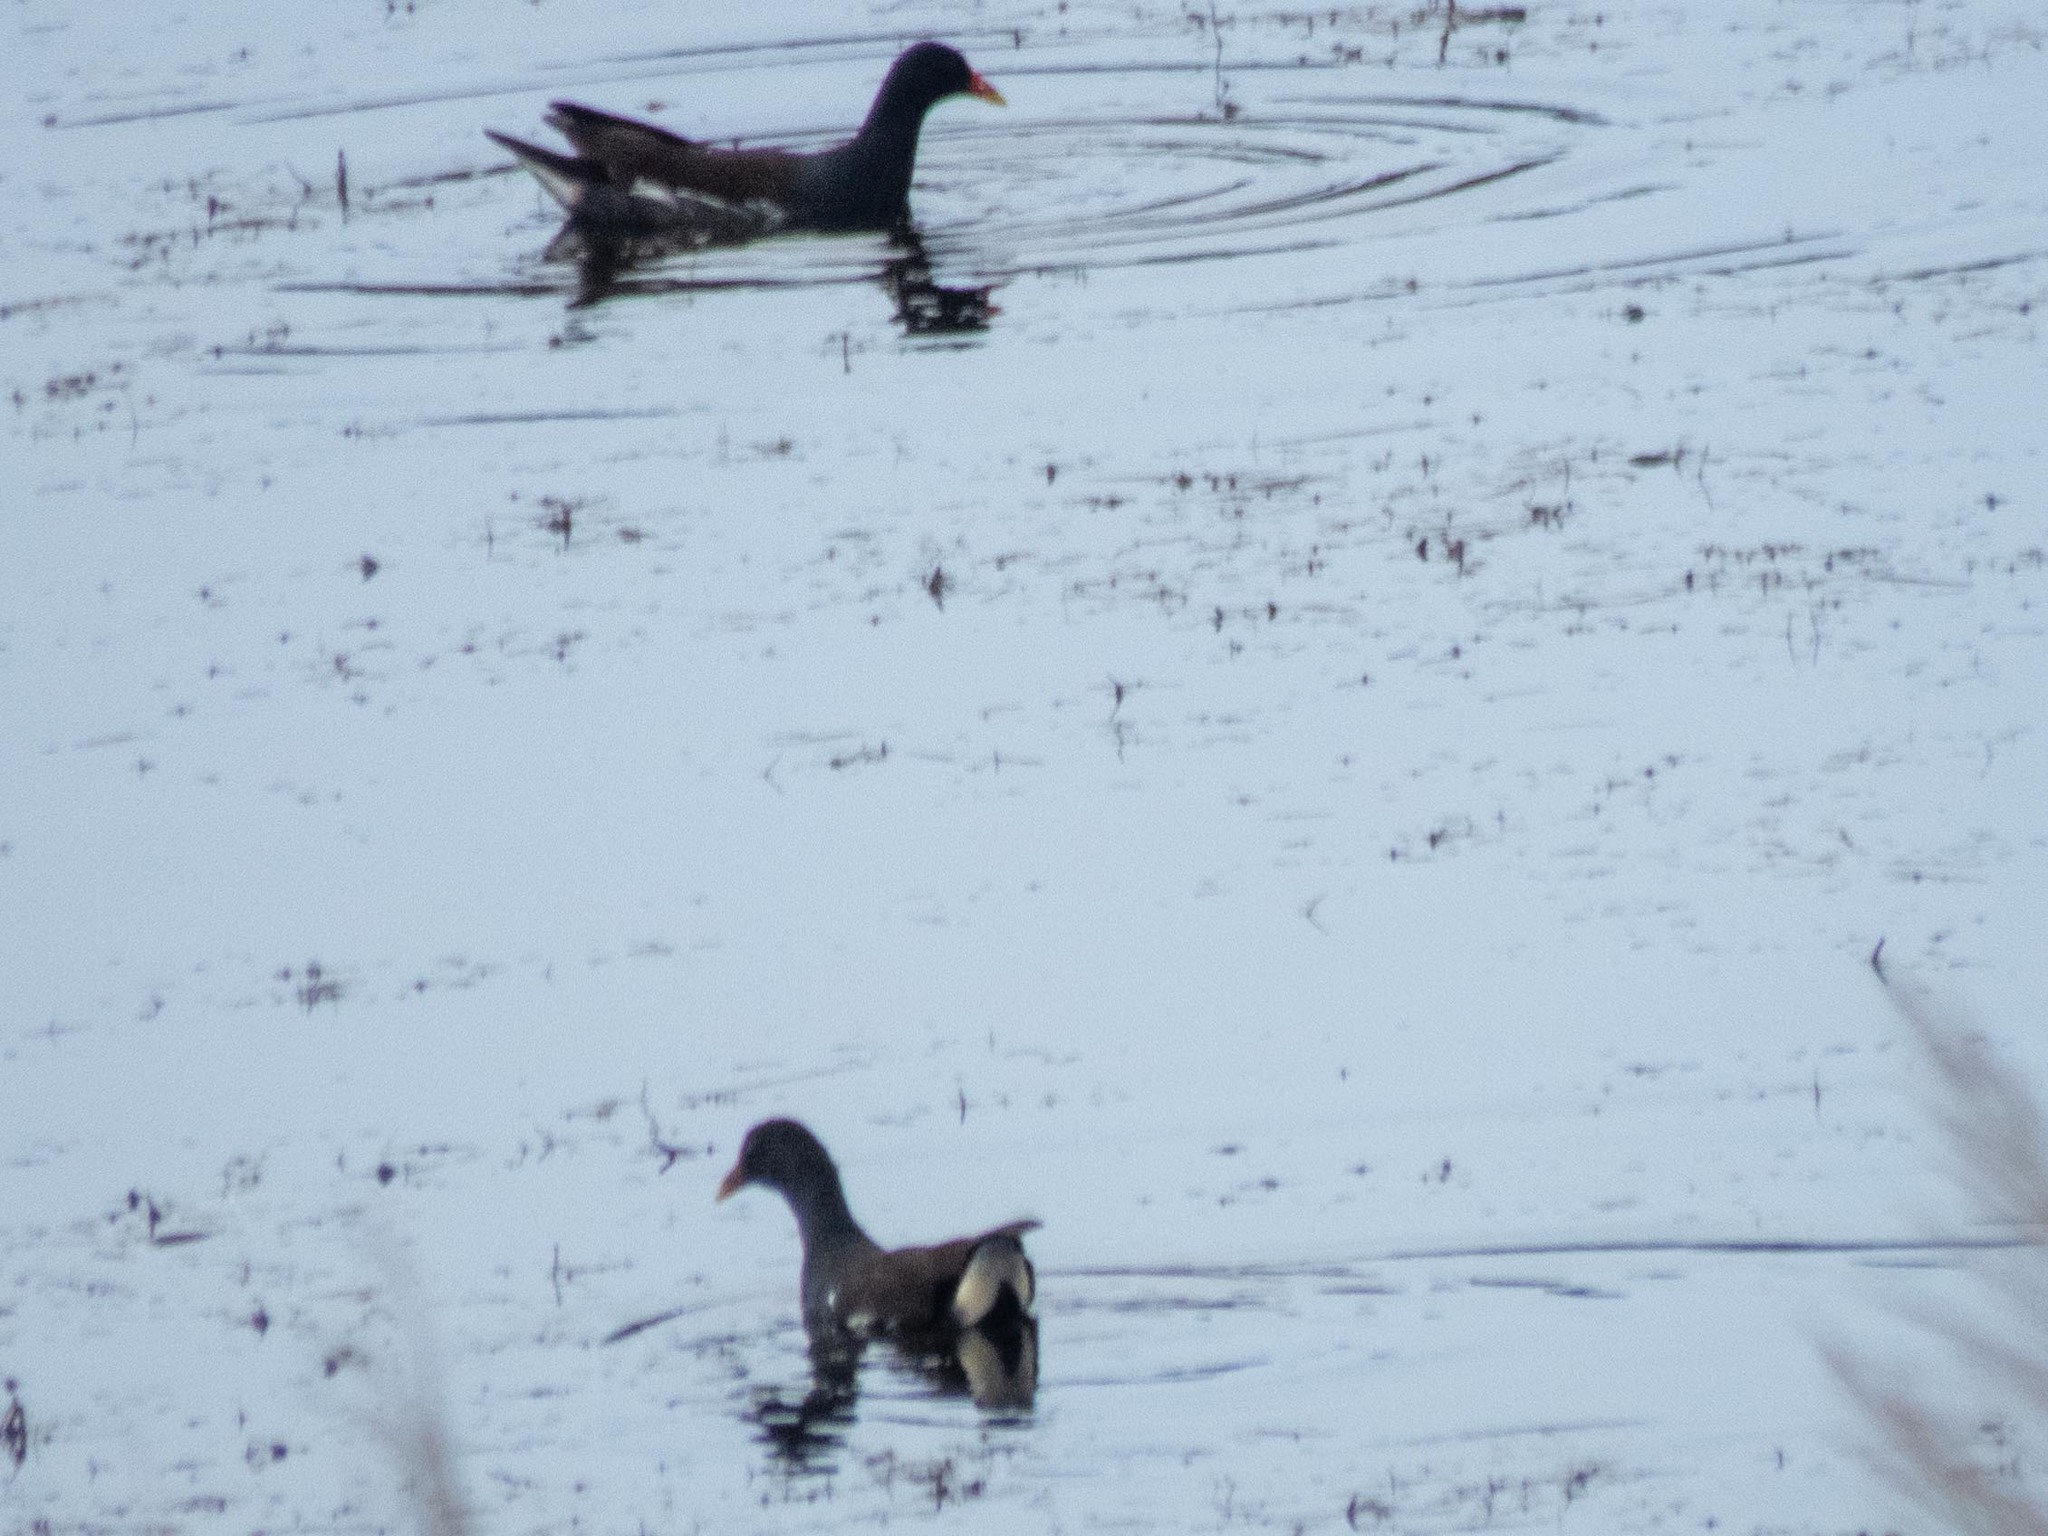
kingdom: Animalia
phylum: Chordata
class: Aves
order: Gruiformes
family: Rallidae
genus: Gallinula
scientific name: Gallinula chloropus
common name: Common moorhen
